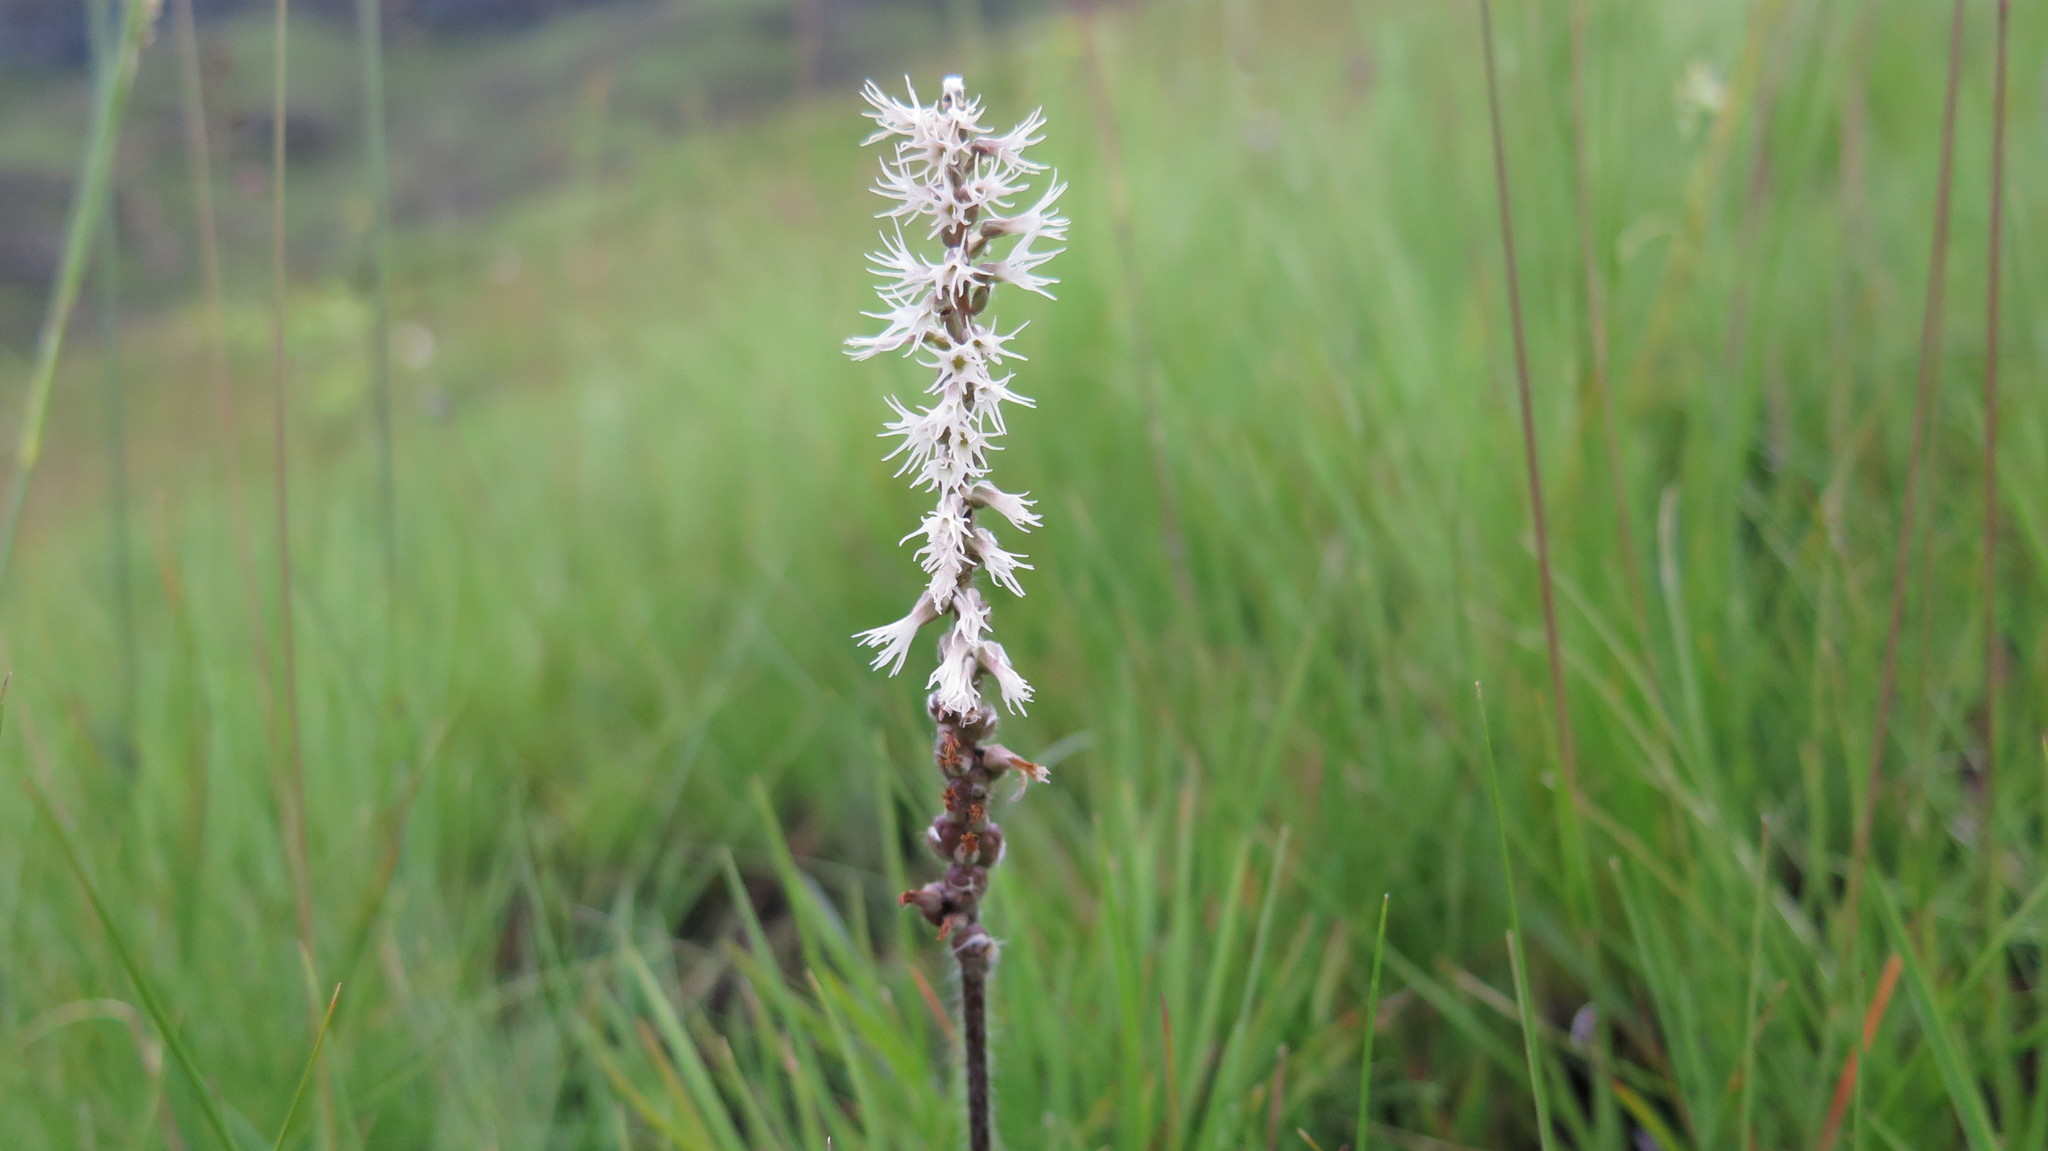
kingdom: Plantae
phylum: Tracheophyta
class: Liliopsida
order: Asparagales
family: Orchidaceae
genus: Holothrix
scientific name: Holothrix scopularia
